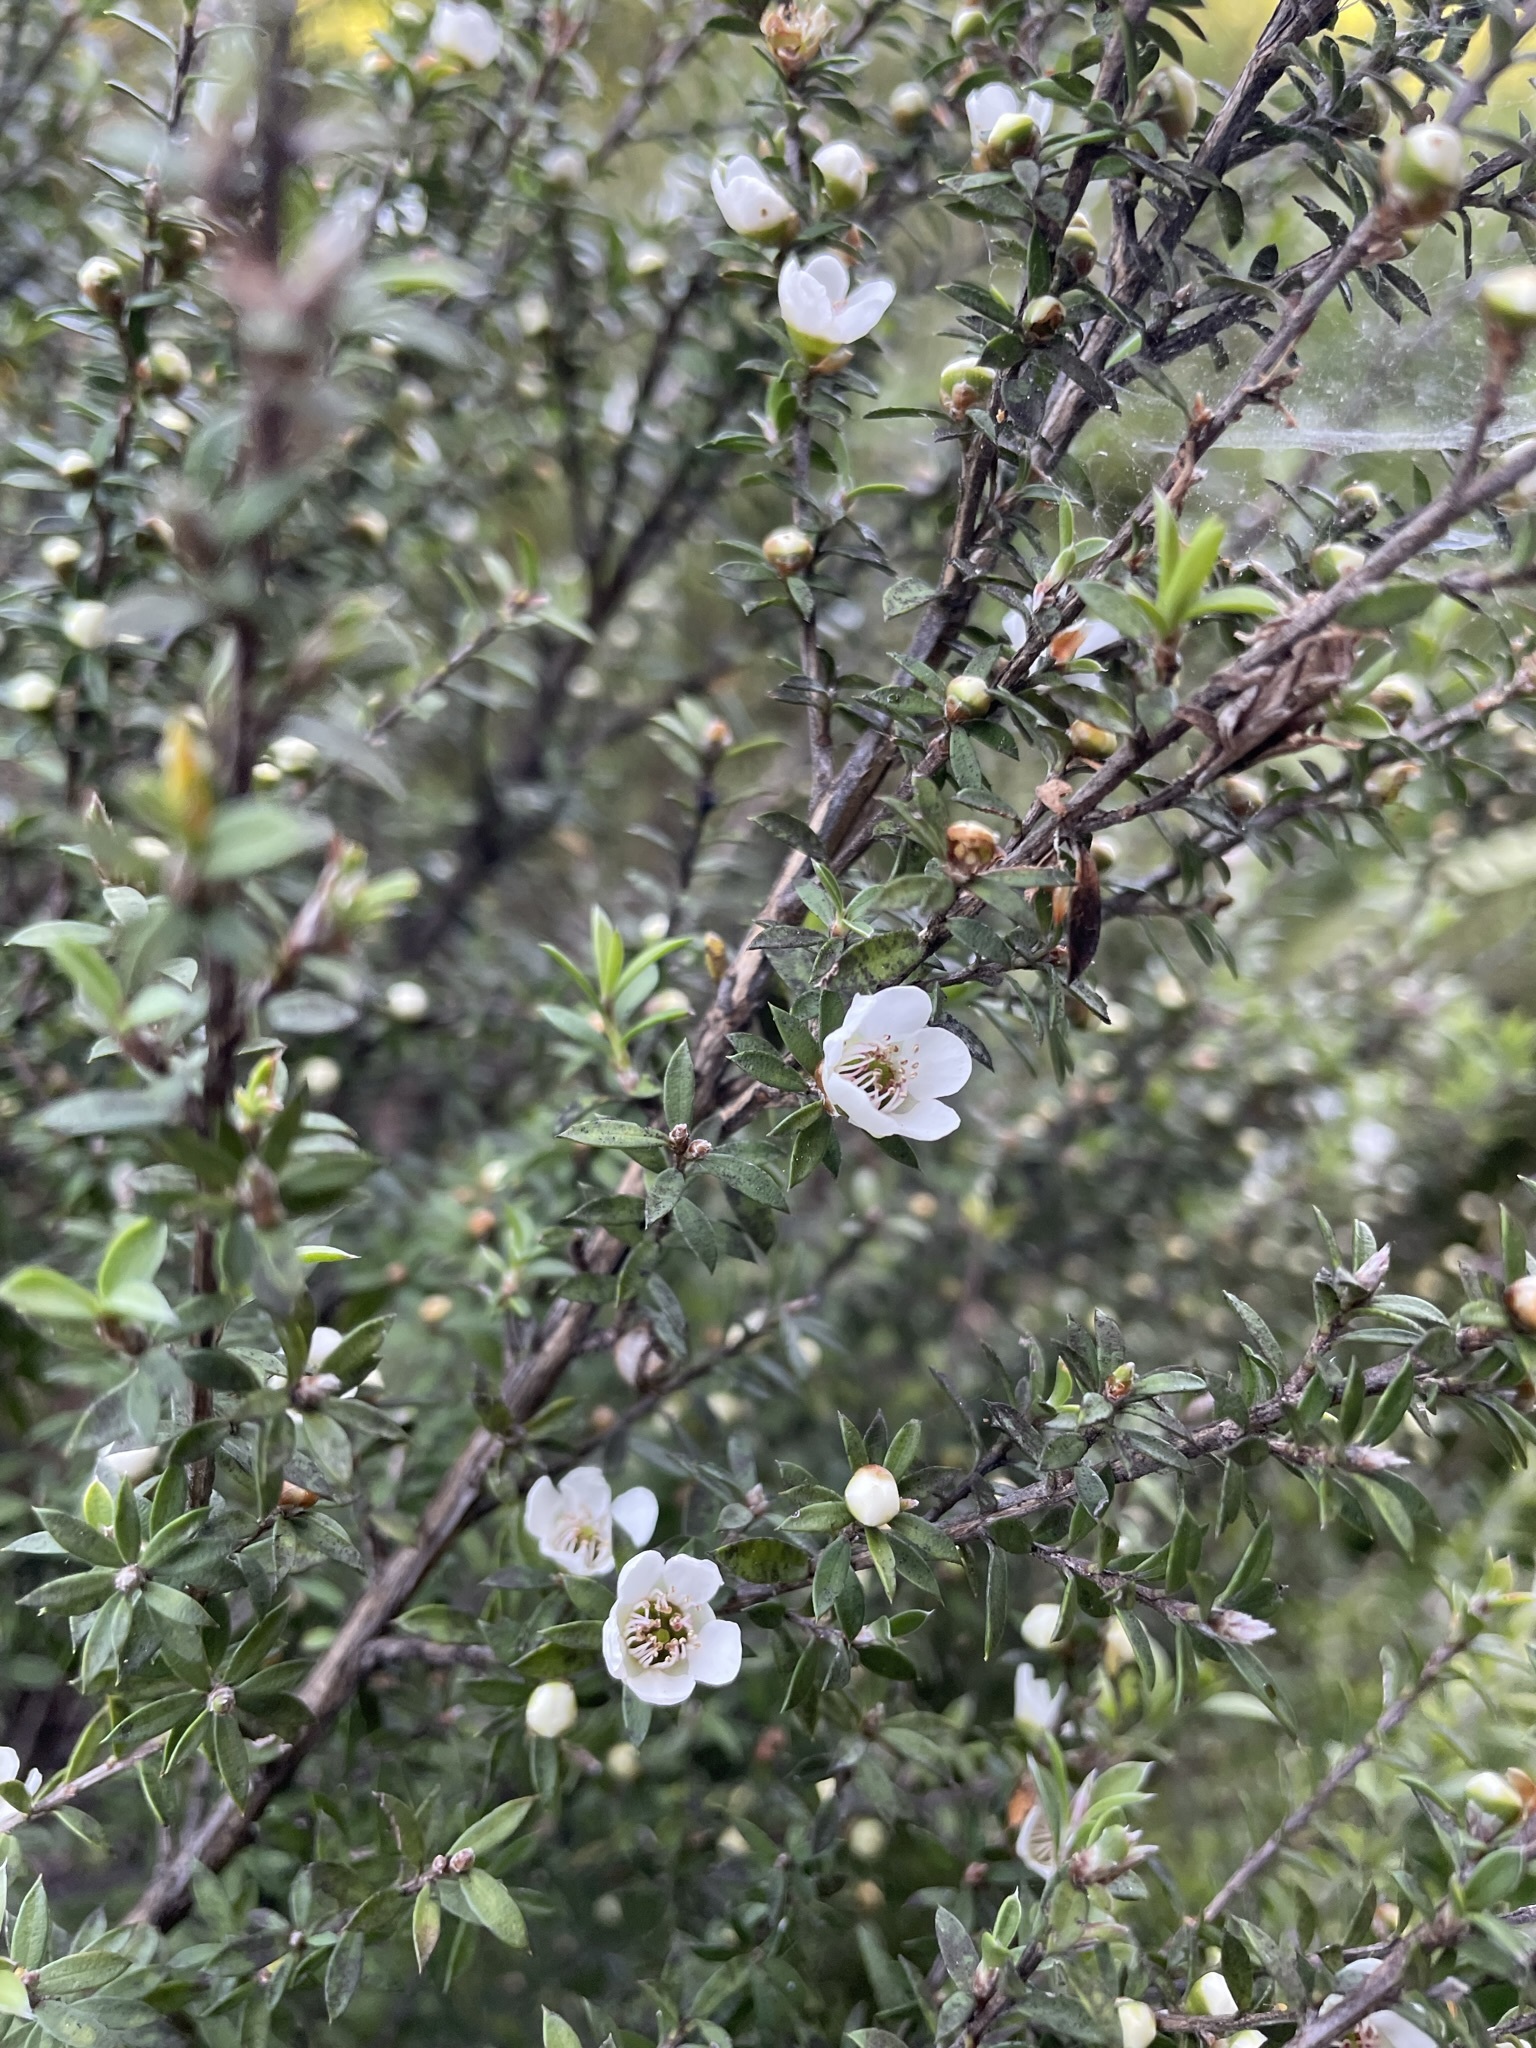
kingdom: Plantae
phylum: Tracheophyta
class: Magnoliopsida
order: Myrtales
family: Myrtaceae
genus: Leptospermum
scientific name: Leptospermum scoparium
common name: Broom tea-tree
